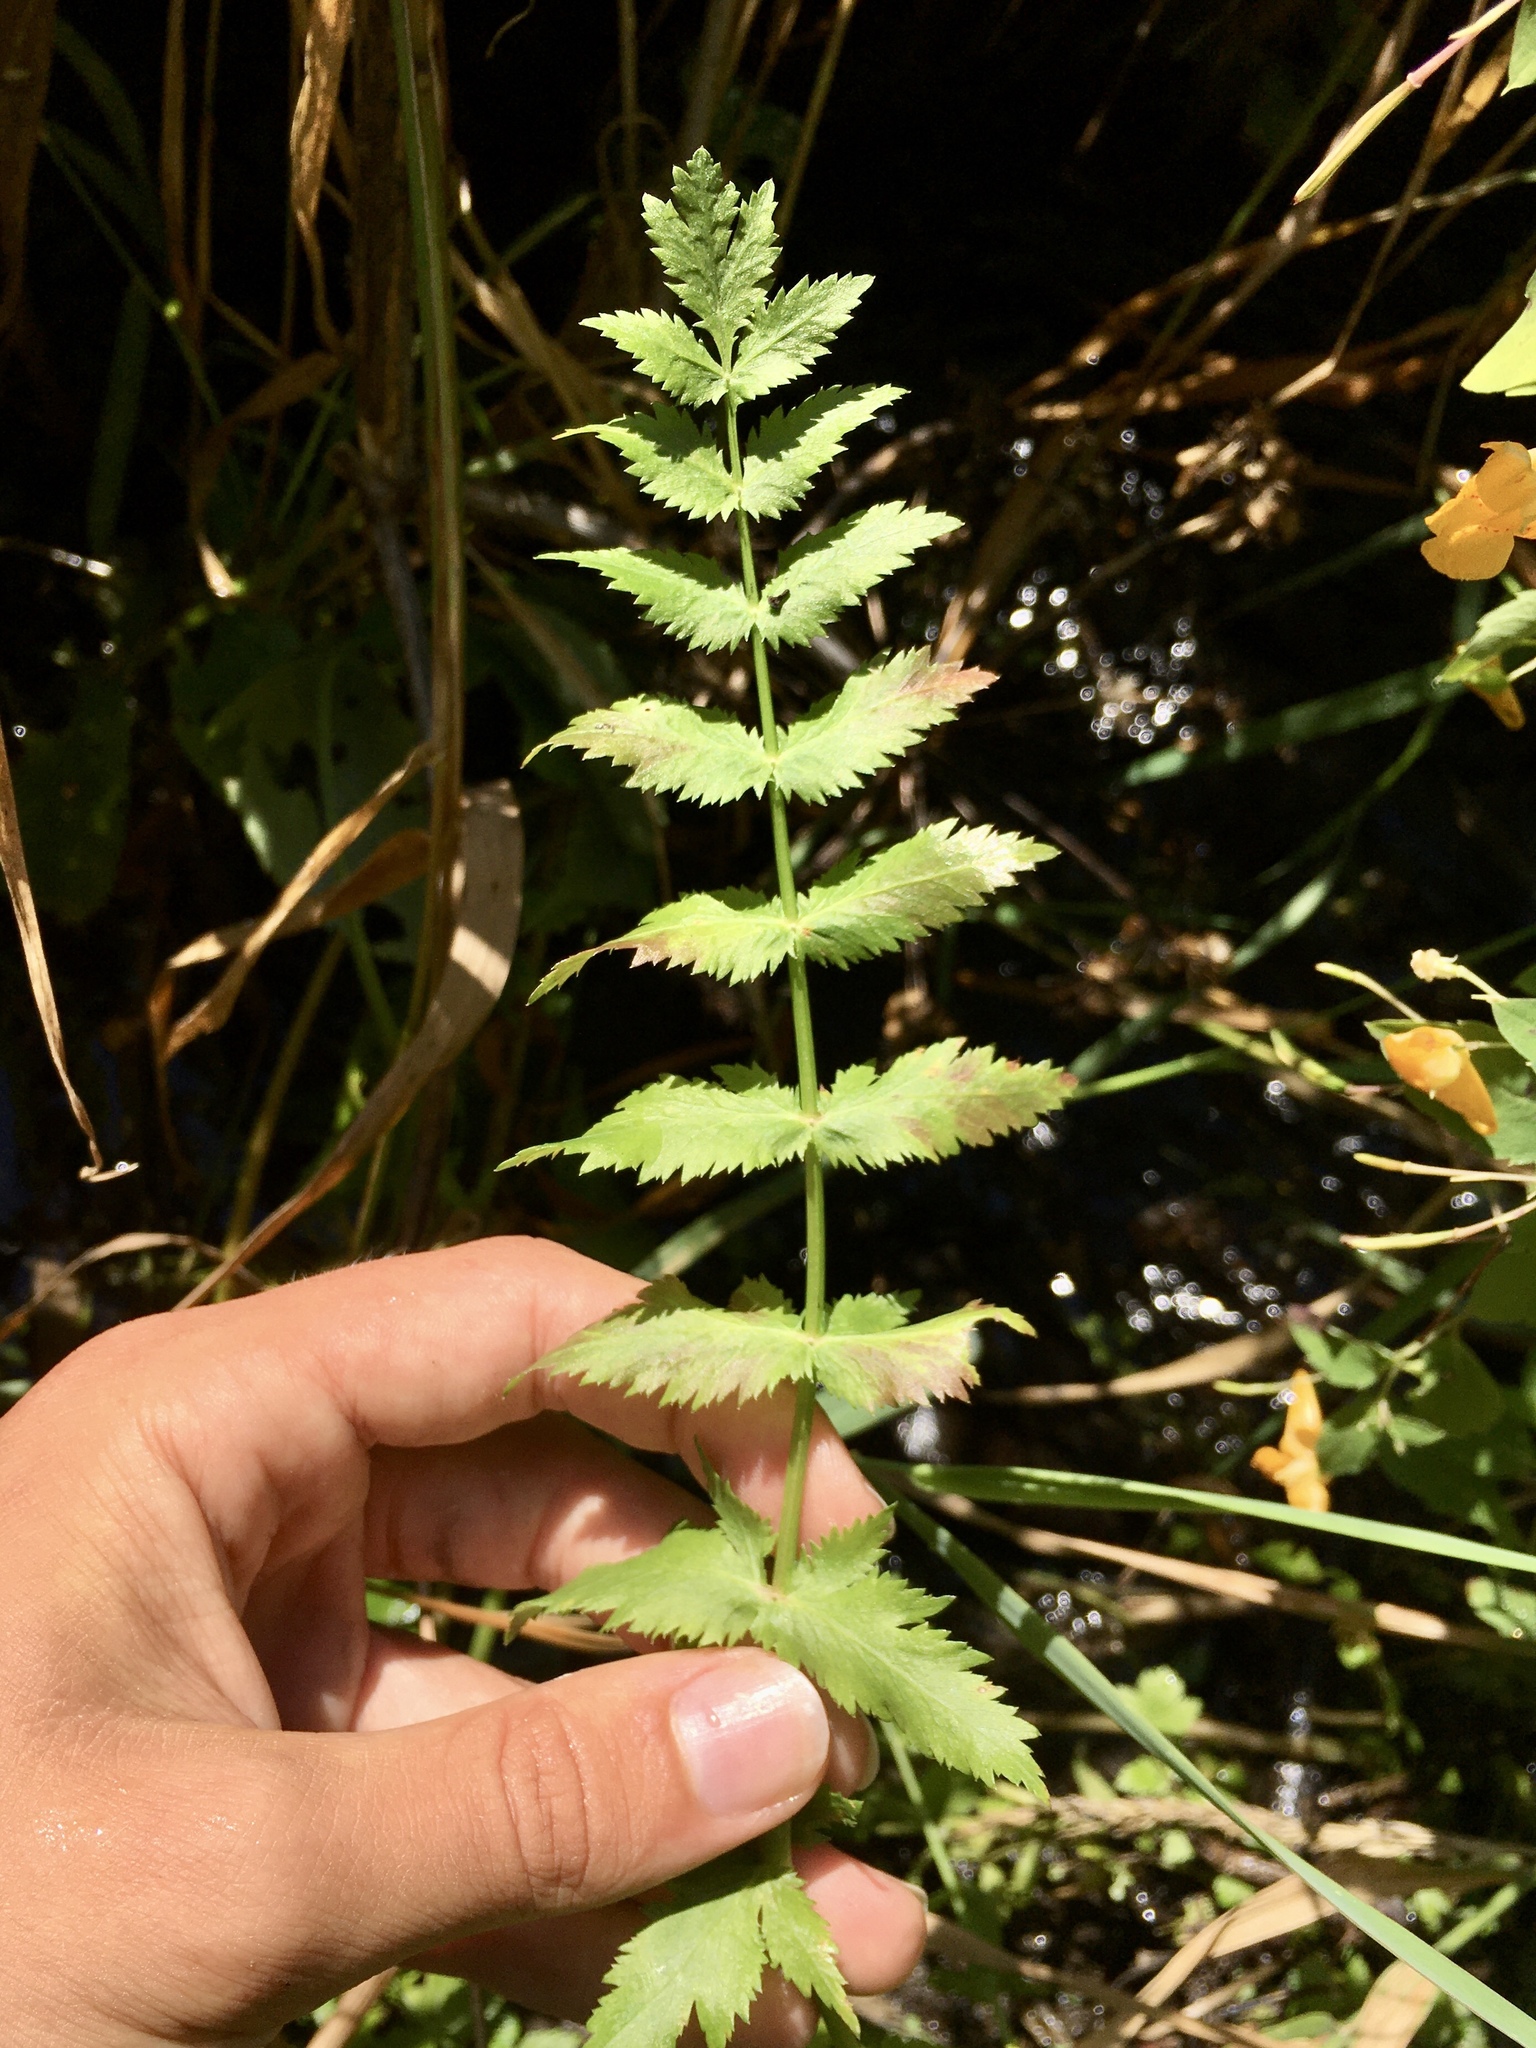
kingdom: Plantae
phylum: Tracheophyta
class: Magnoliopsida
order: Apiales
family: Apiaceae
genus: Berula
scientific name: Berula erecta
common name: Lesser water-parsnip
